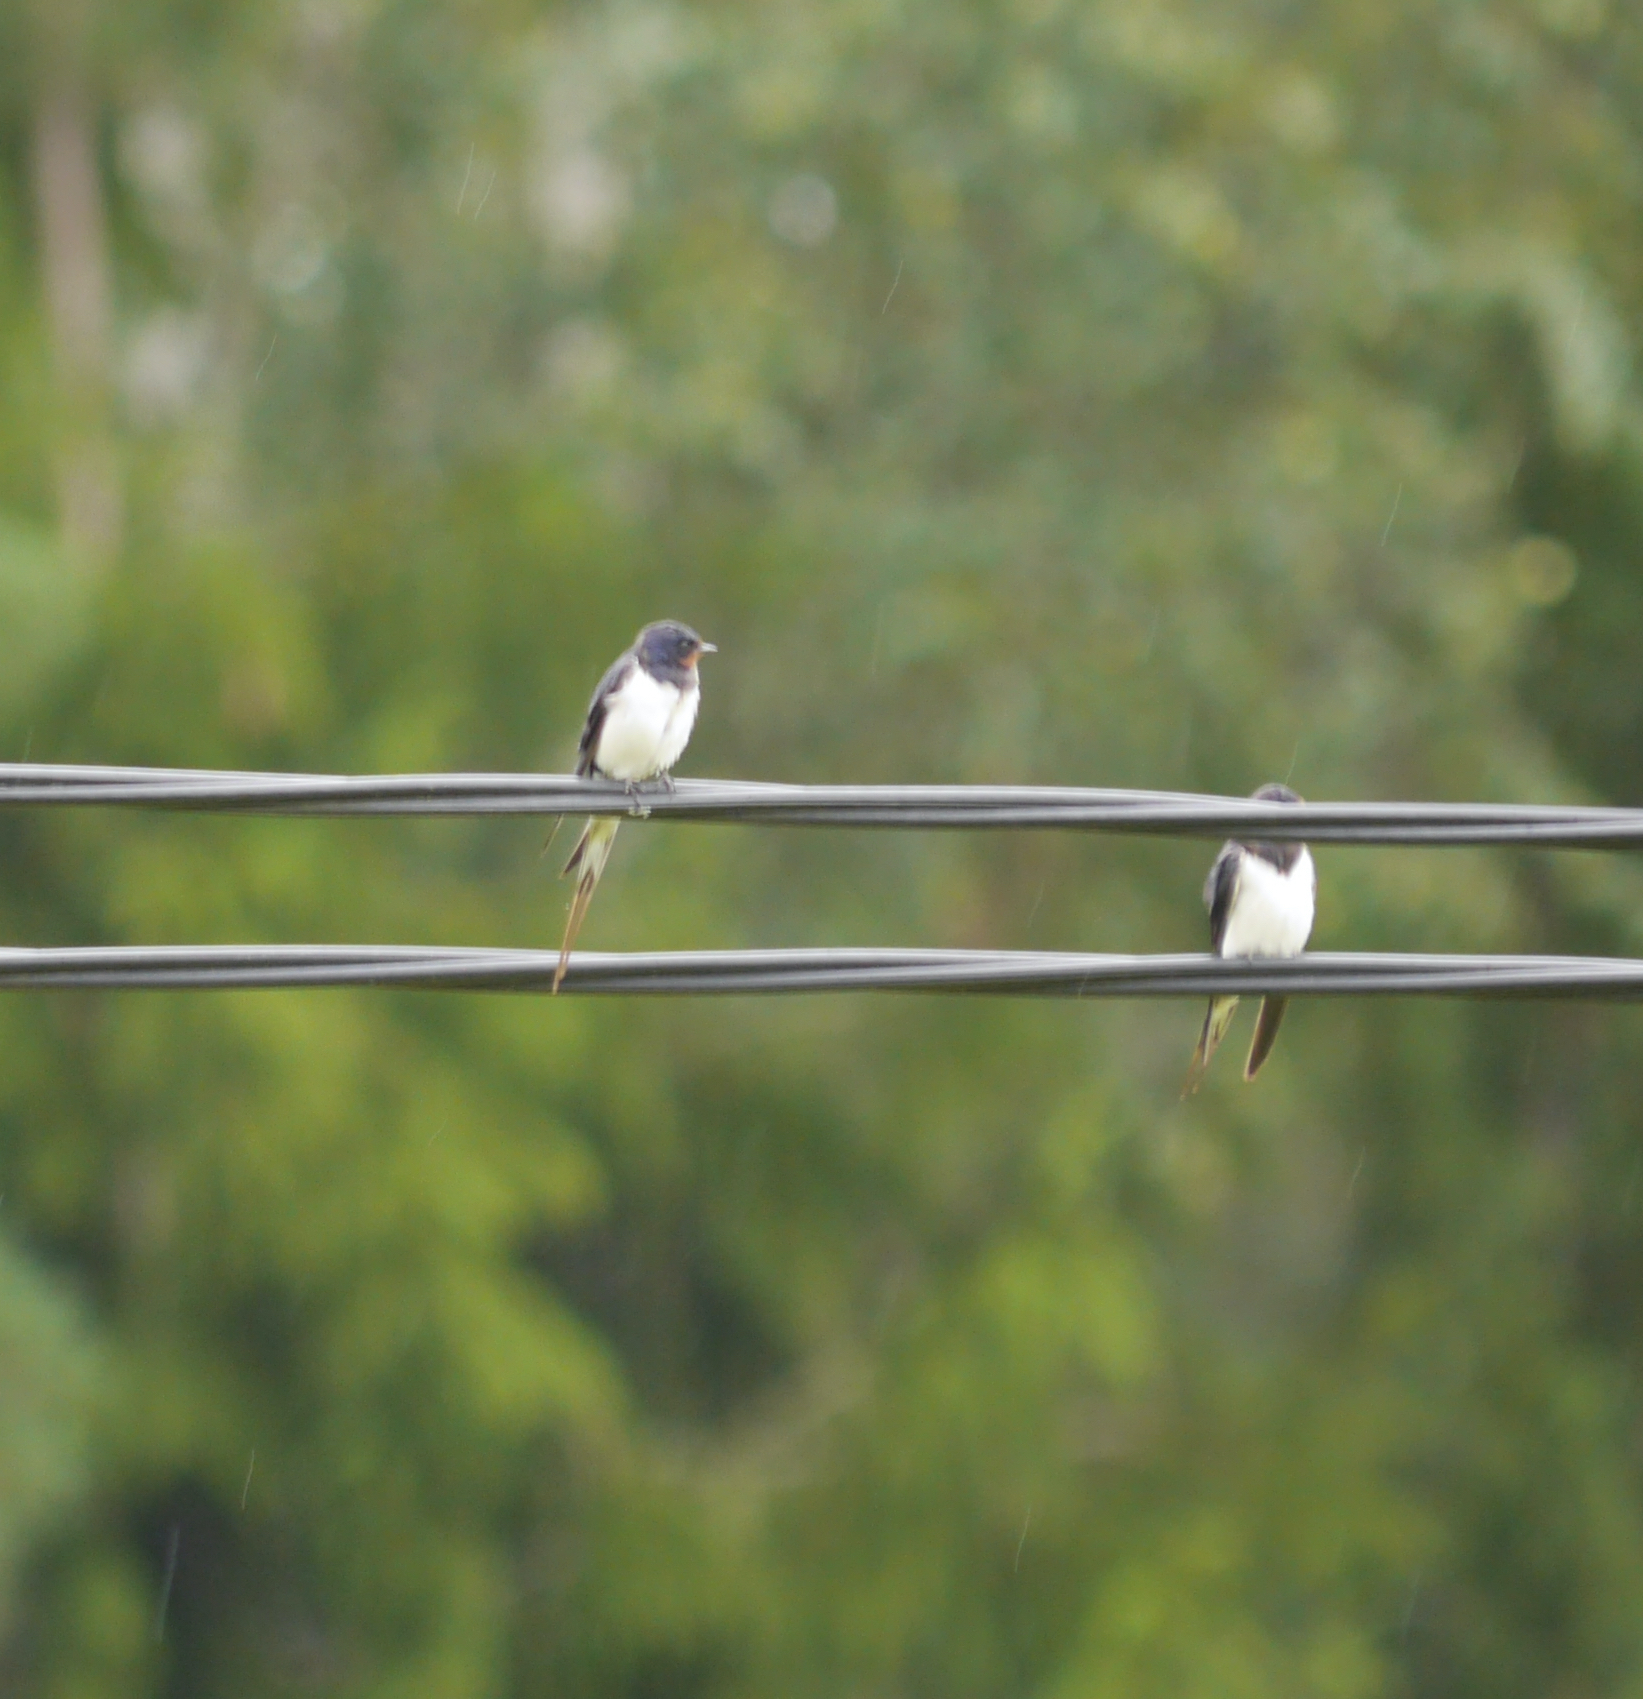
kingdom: Animalia
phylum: Chordata
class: Aves
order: Passeriformes
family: Hirundinidae
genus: Hirundo
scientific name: Hirundo rustica
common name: Barn swallow
